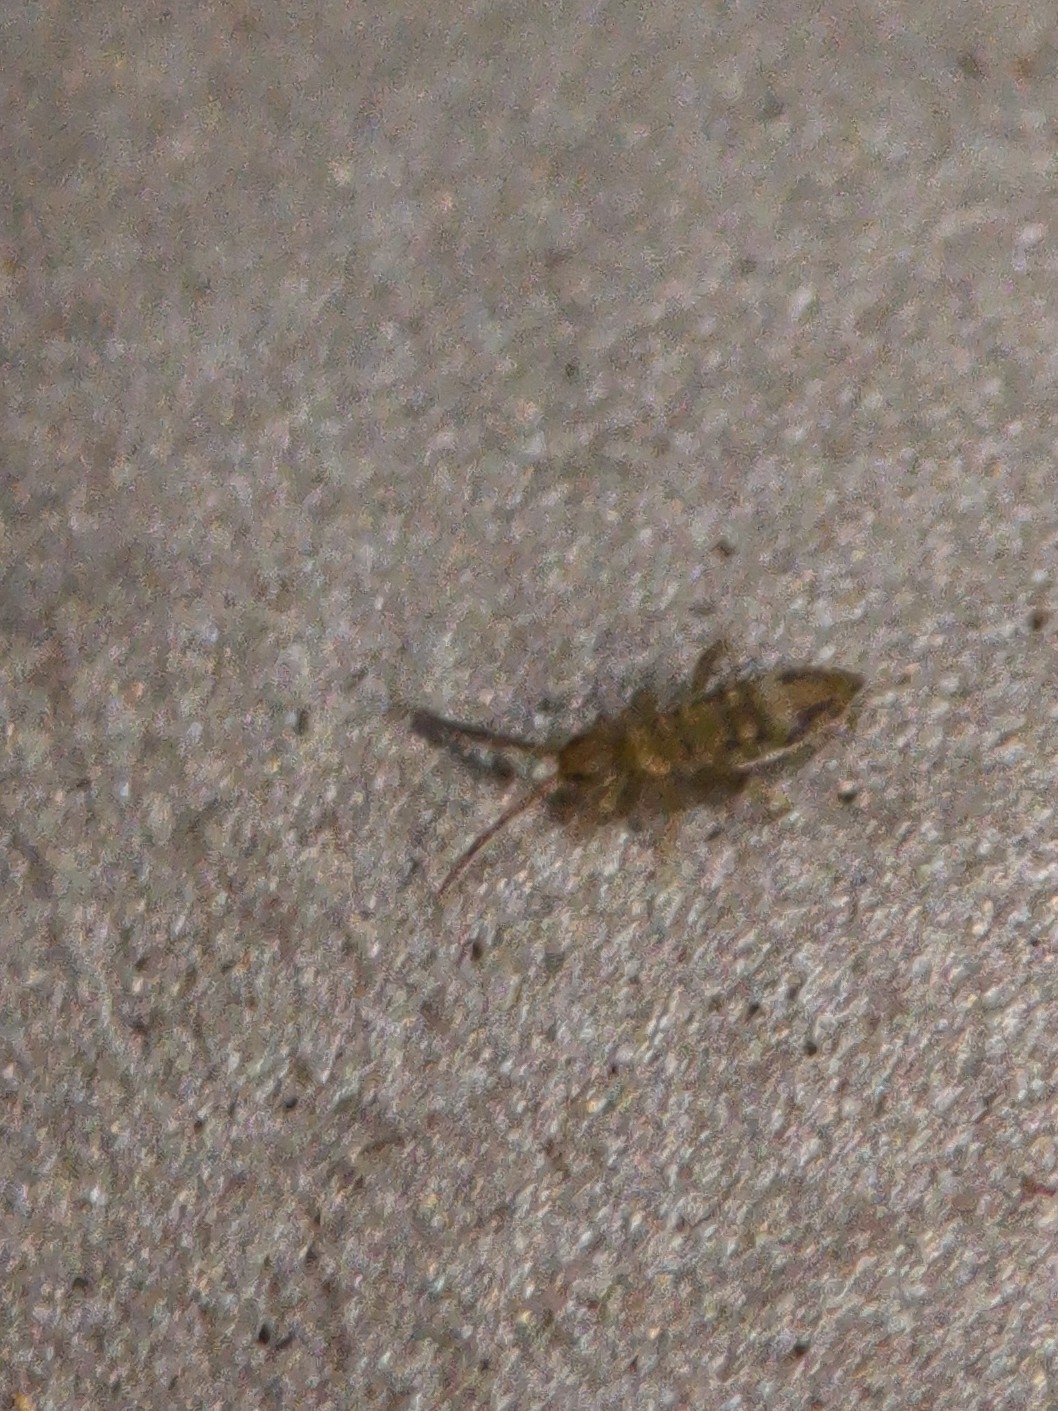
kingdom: Animalia
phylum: Arthropoda
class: Collembola
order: Entomobryomorpha
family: Entomobryidae
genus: Entomobrya
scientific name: Entomobrya nivalis
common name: Cosmopolitan springtail
